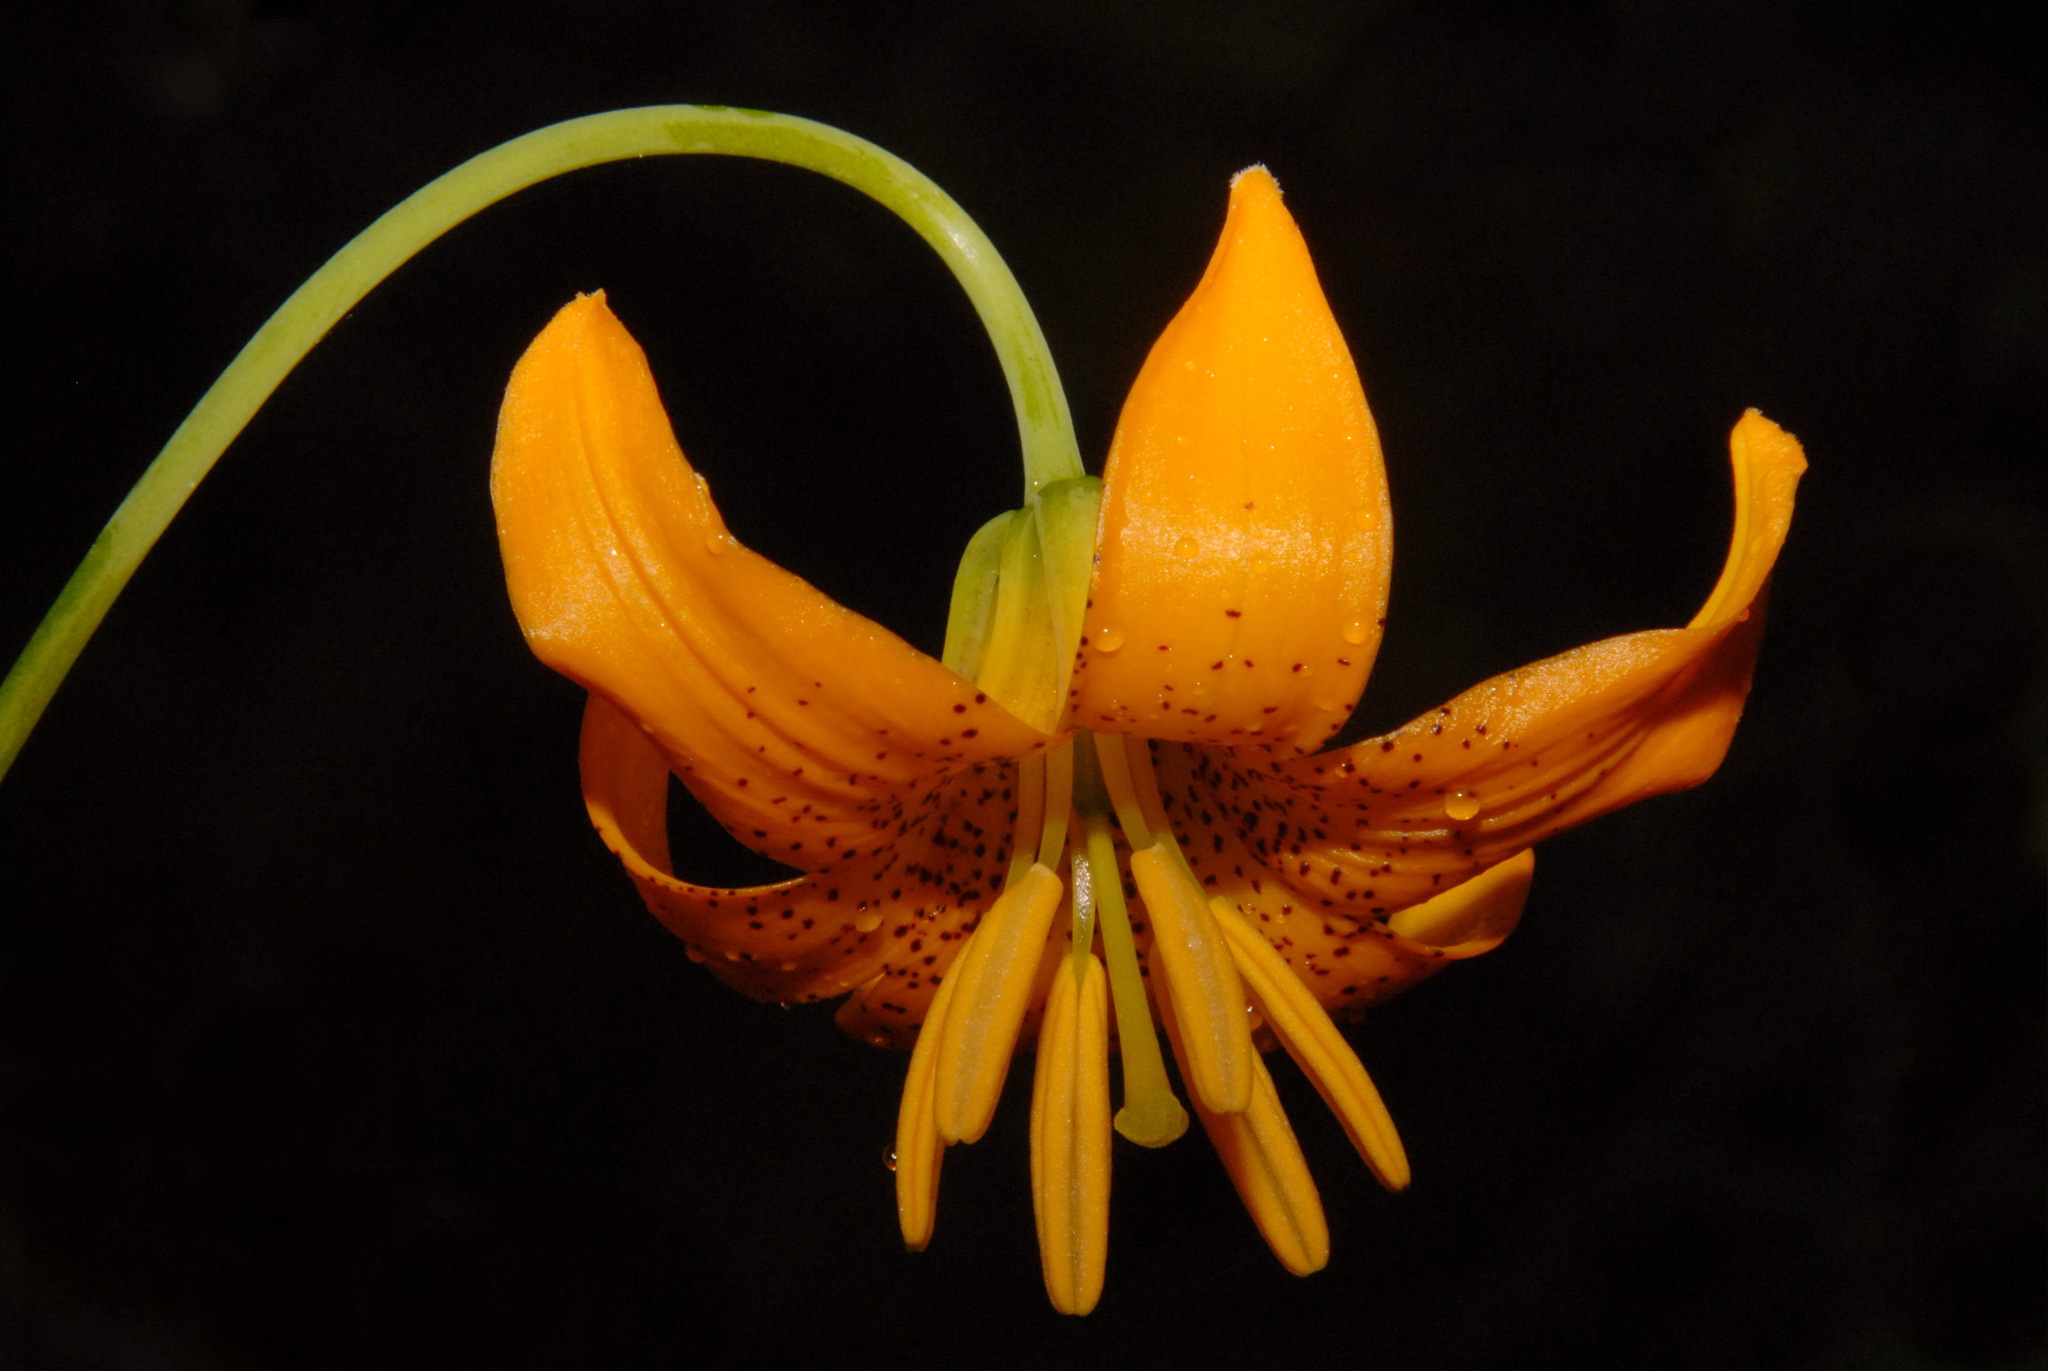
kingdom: Plantae
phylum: Tracheophyta
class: Liliopsida
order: Liliales
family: Liliaceae
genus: Lilium
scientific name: Lilium columbianum
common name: Columbia lily
